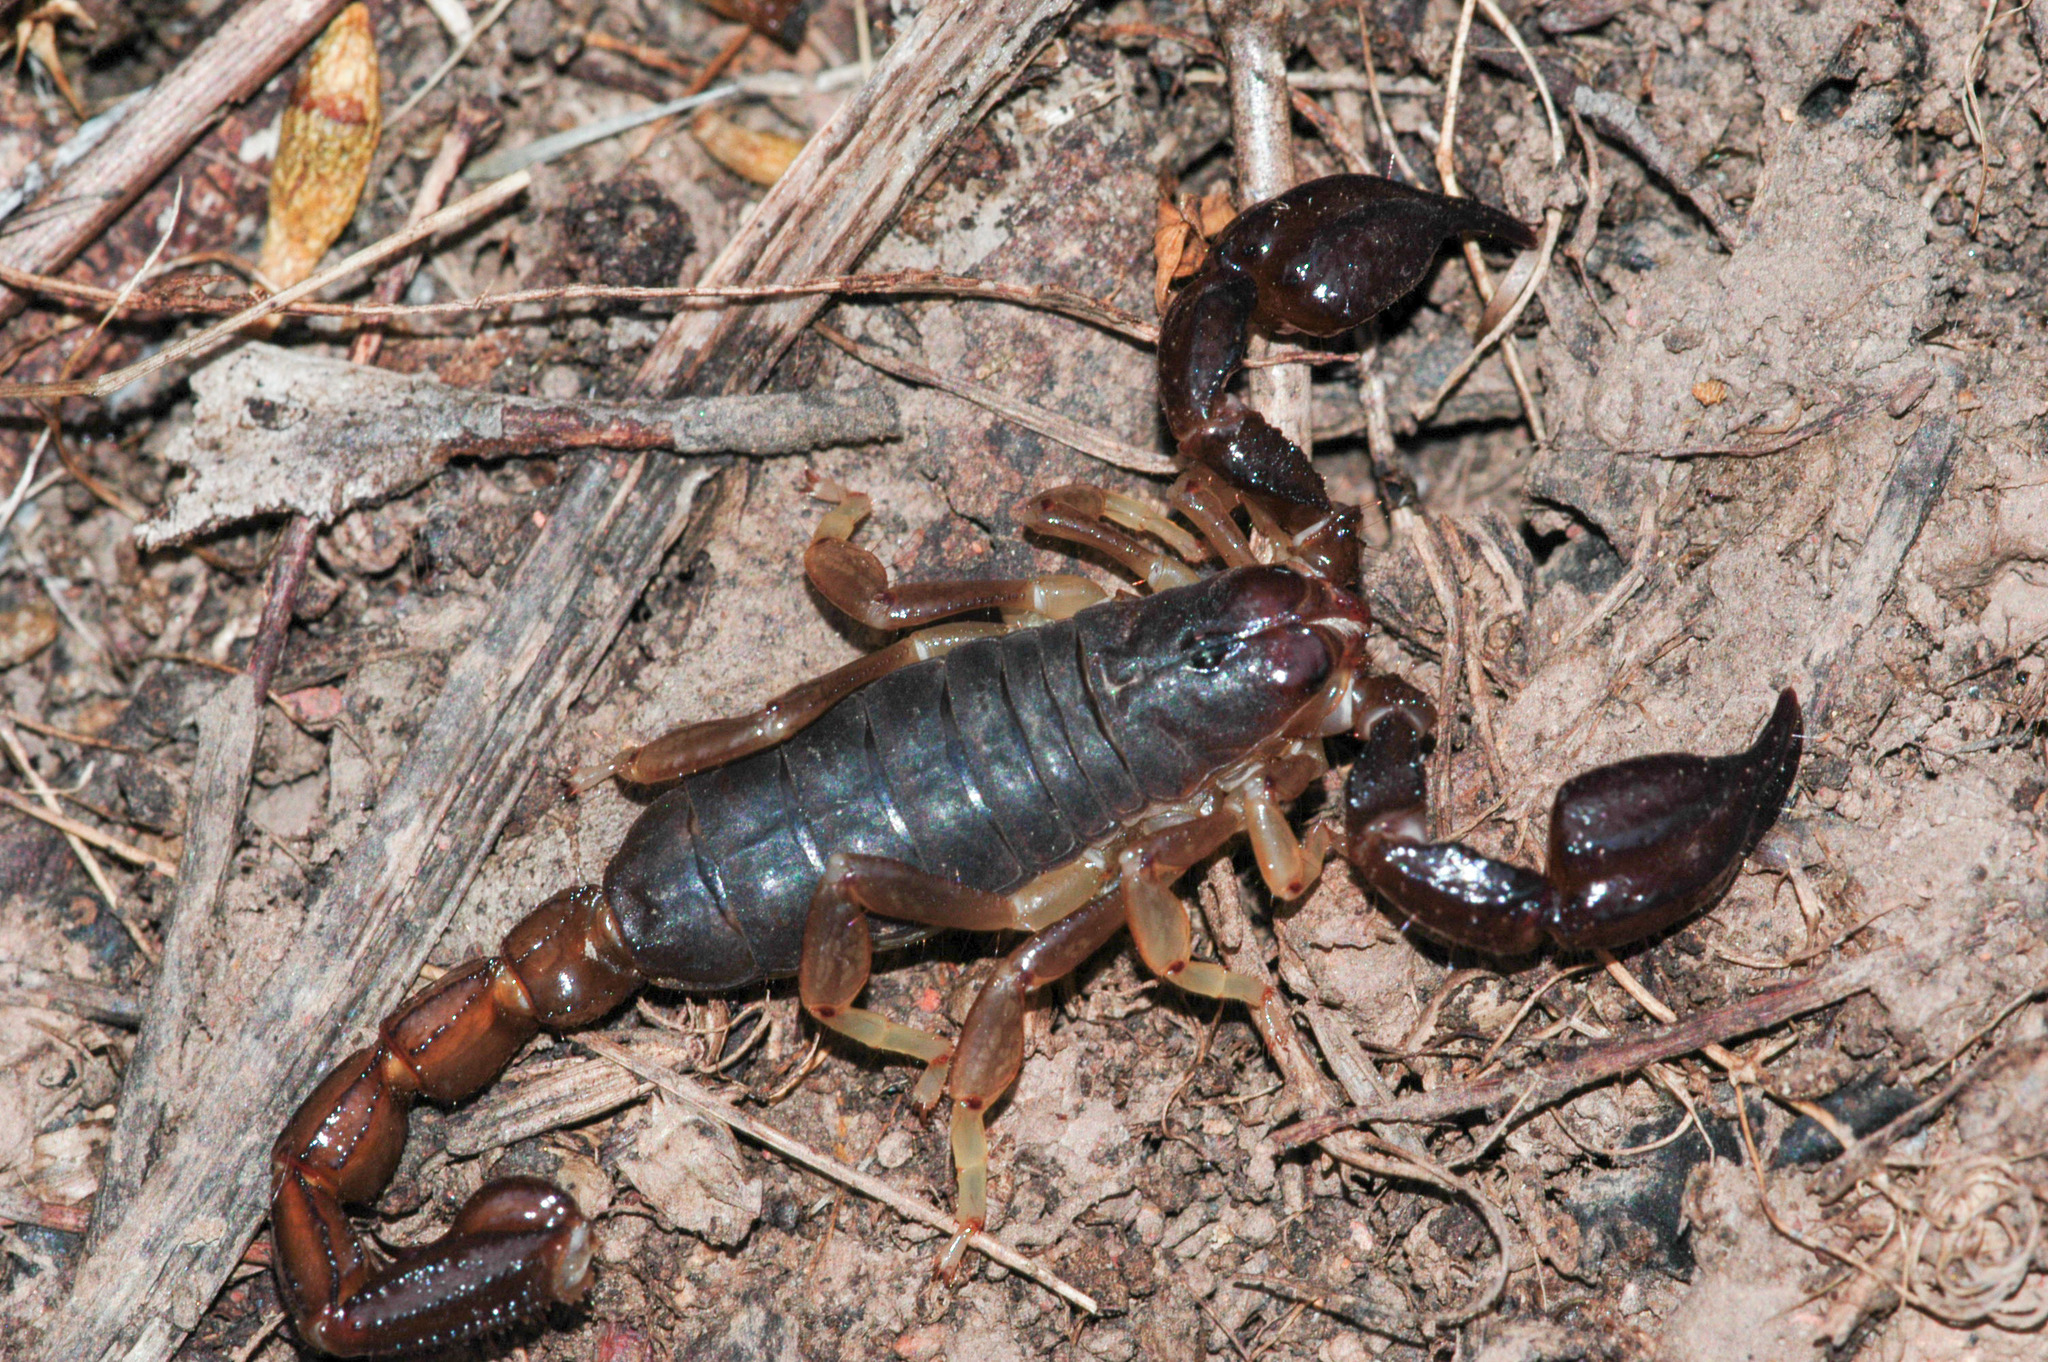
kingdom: Animalia
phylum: Arthropoda
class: Arachnida
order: Scorpiones
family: Scorpionidae
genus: Urodacus
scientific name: Urodacus manicatus
